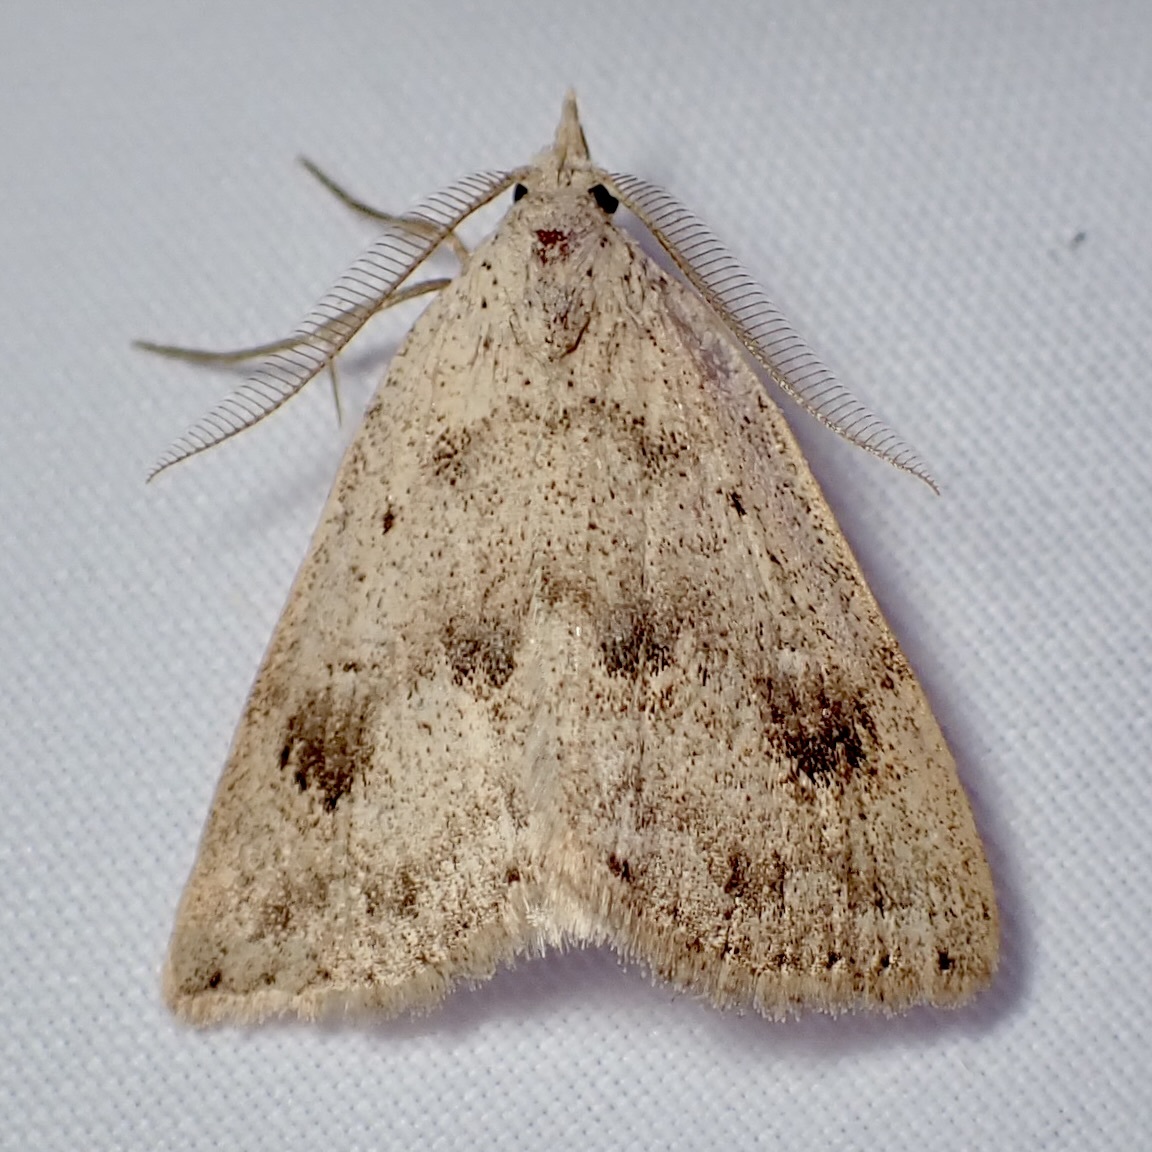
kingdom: Animalia
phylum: Arthropoda
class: Insecta
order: Lepidoptera
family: Erebidae
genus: Pseudorgyia
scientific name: Pseudorgyia russula
